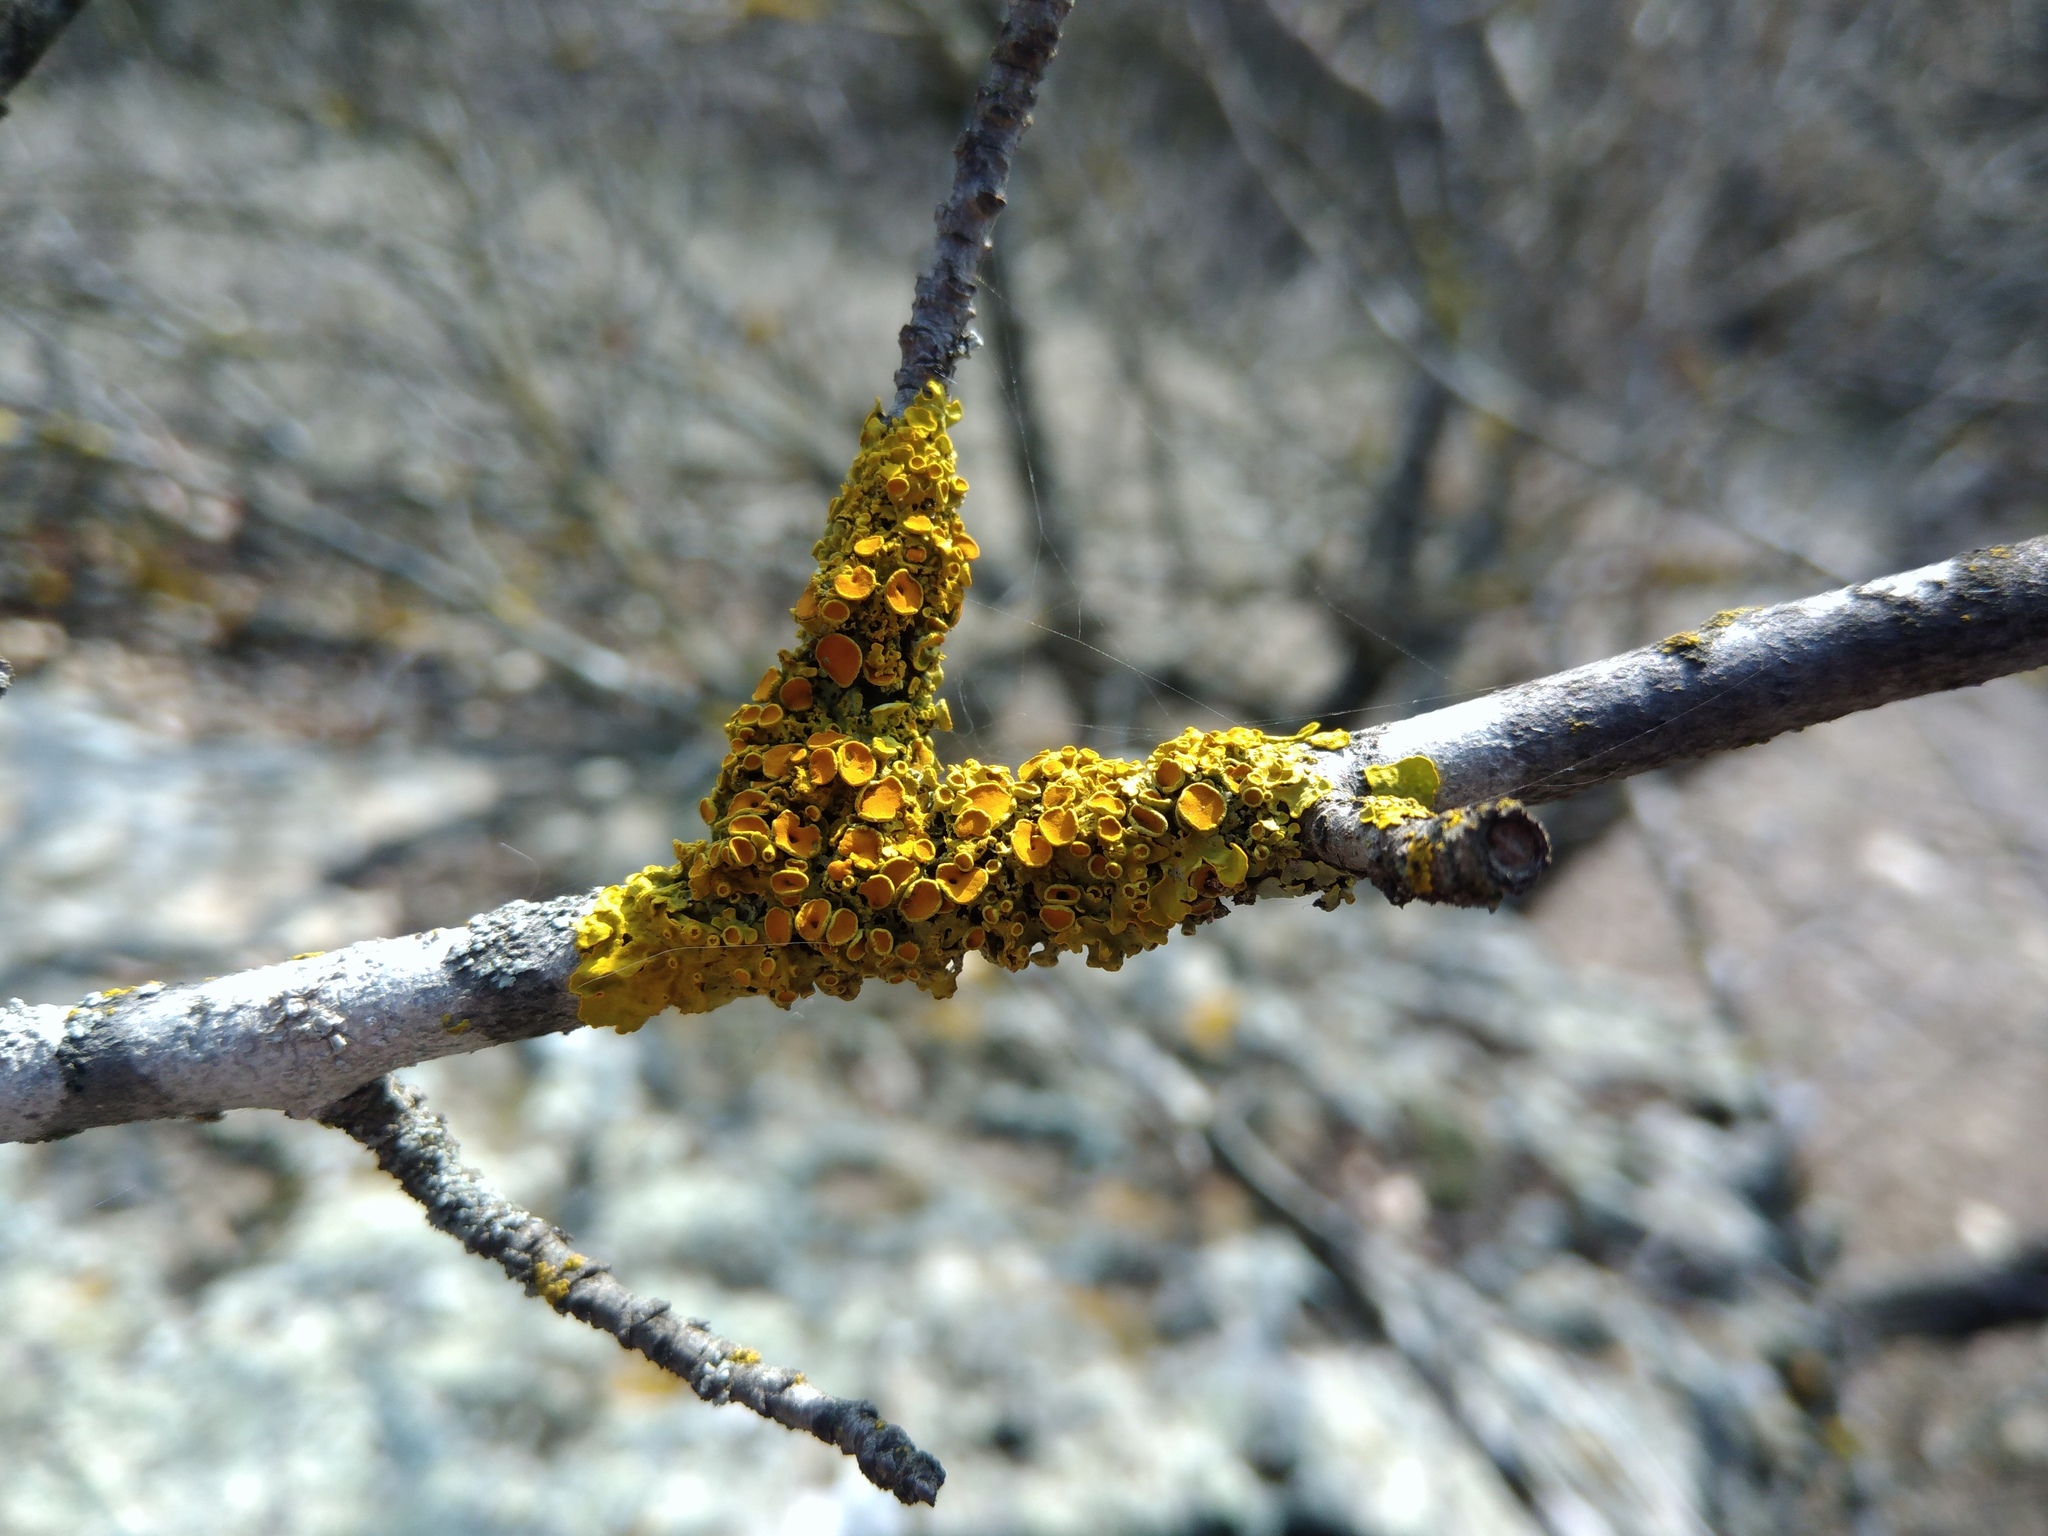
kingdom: Fungi
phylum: Ascomycota
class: Lecanoromycetes
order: Teloschistales
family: Teloschistaceae
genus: Xanthoria
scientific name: Xanthoria parietina
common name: Common orange lichen
